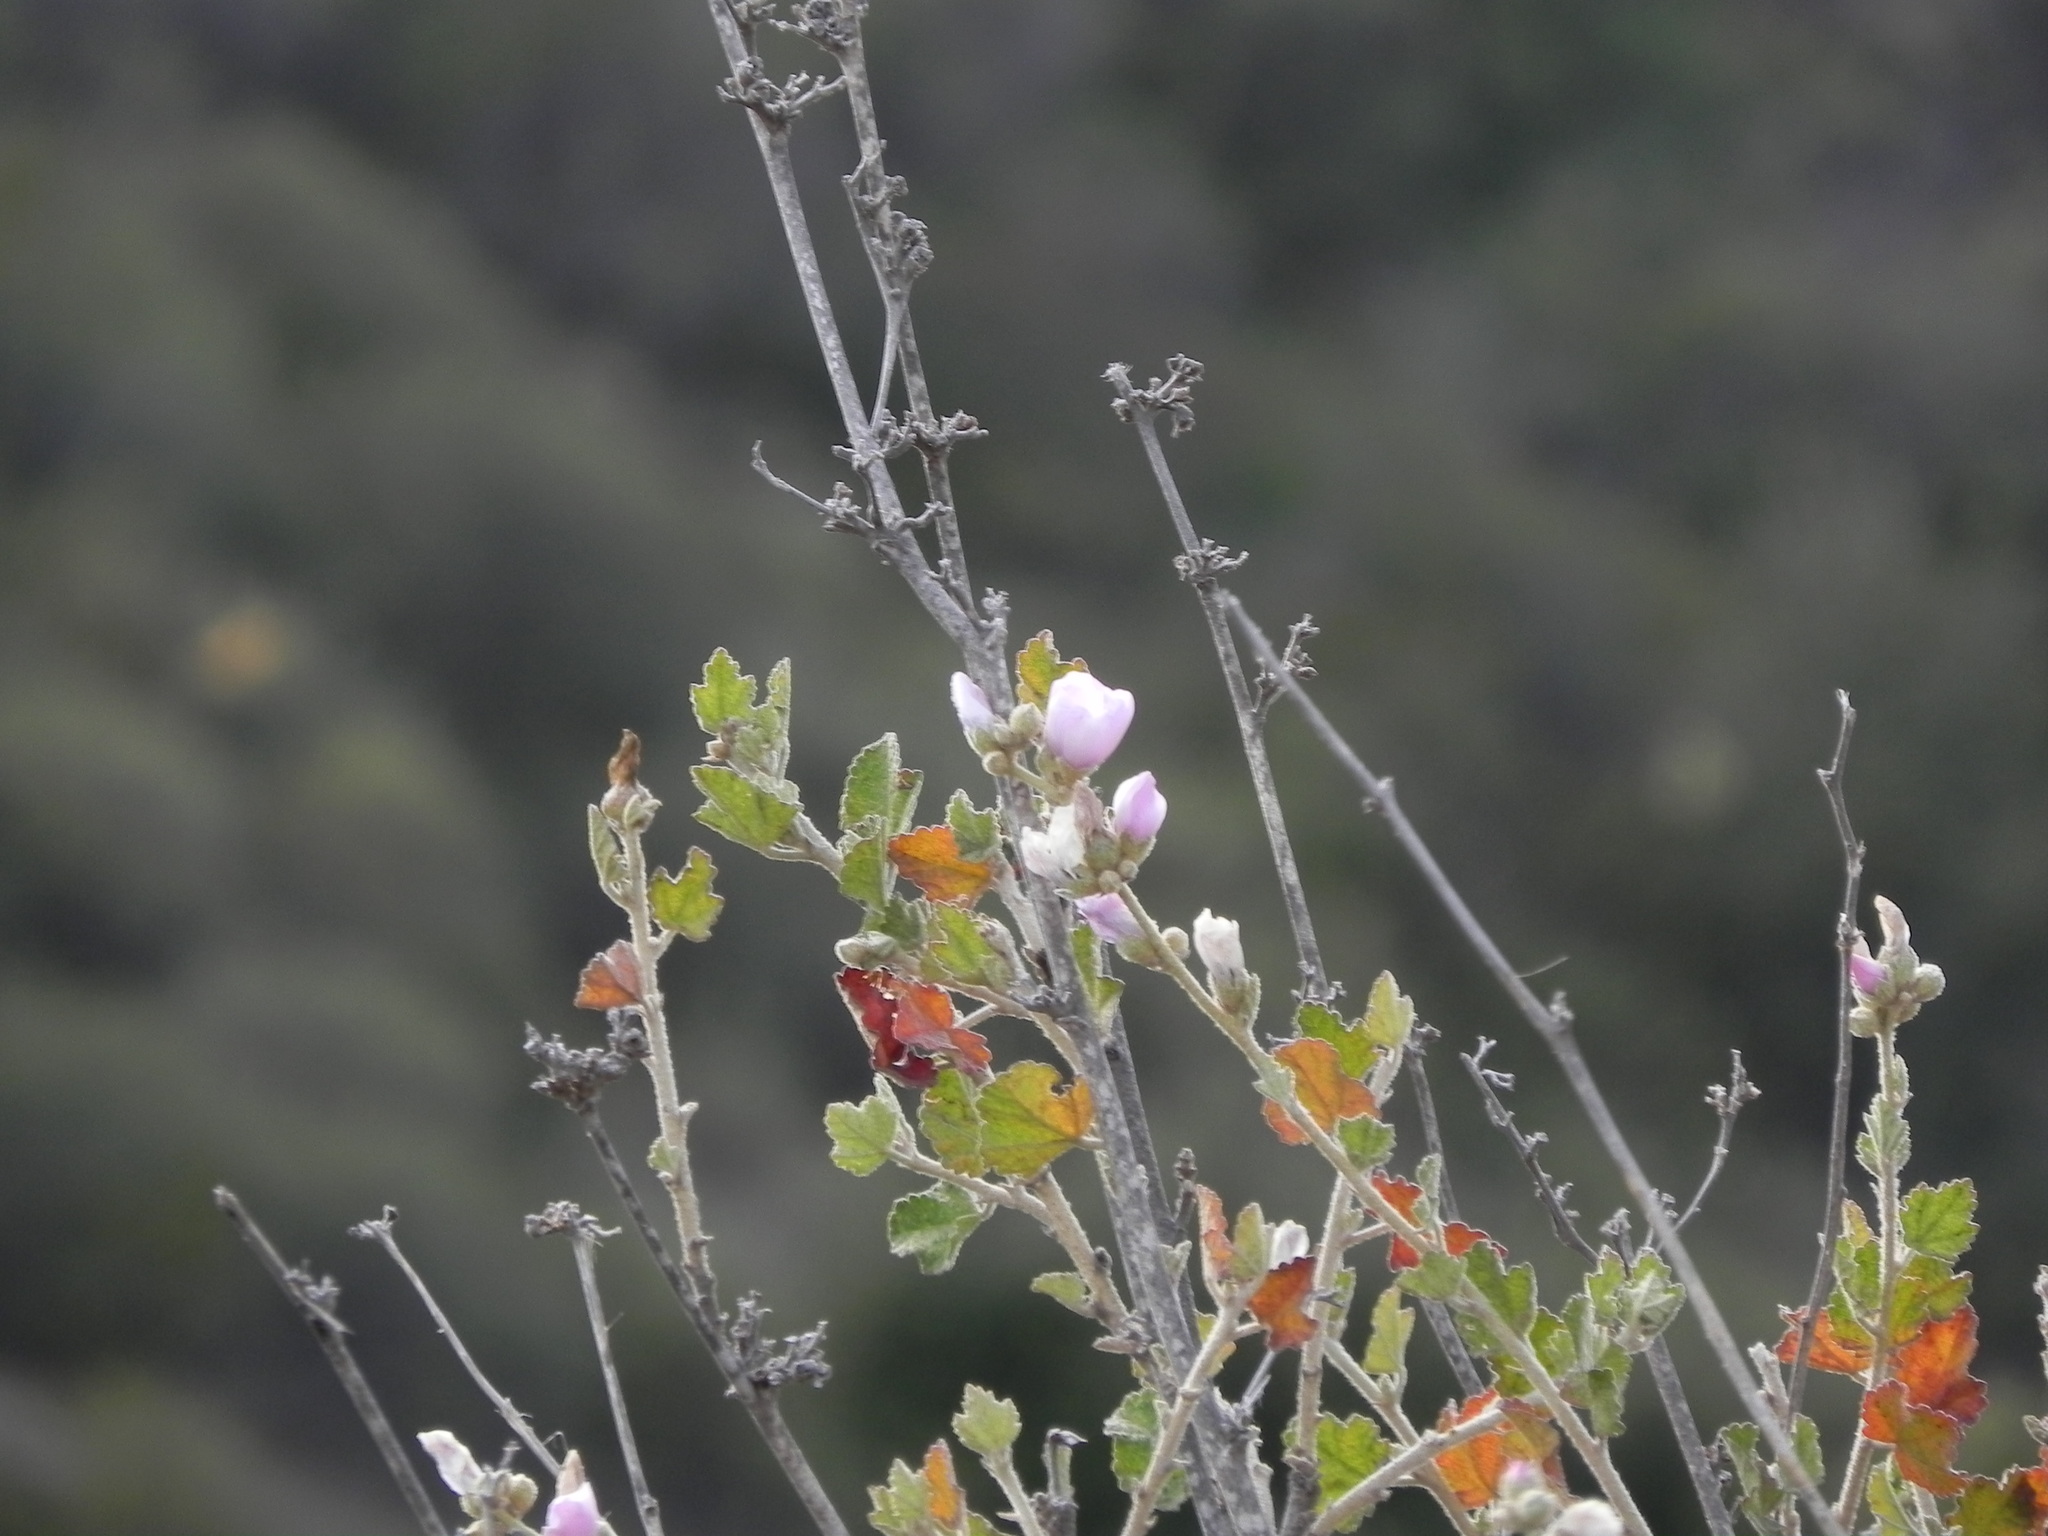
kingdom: Plantae
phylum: Tracheophyta
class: Magnoliopsida
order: Malvales
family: Malvaceae
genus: Malacothamnus
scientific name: Malacothamnus fasciculatus
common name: Sant cruz island bush-mallow
